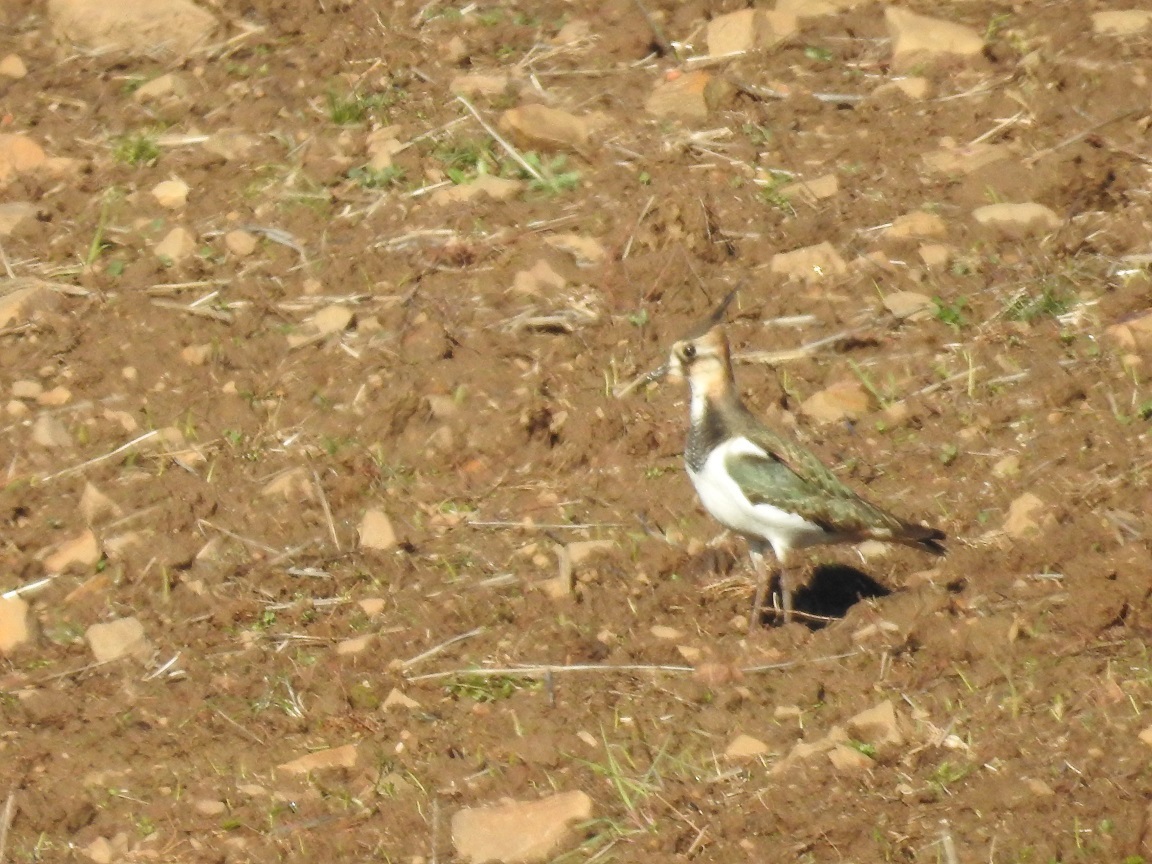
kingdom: Animalia
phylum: Chordata
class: Aves
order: Charadriiformes
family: Charadriidae
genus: Vanellus
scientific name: Vanellus vanellus
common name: Northern lapwing
